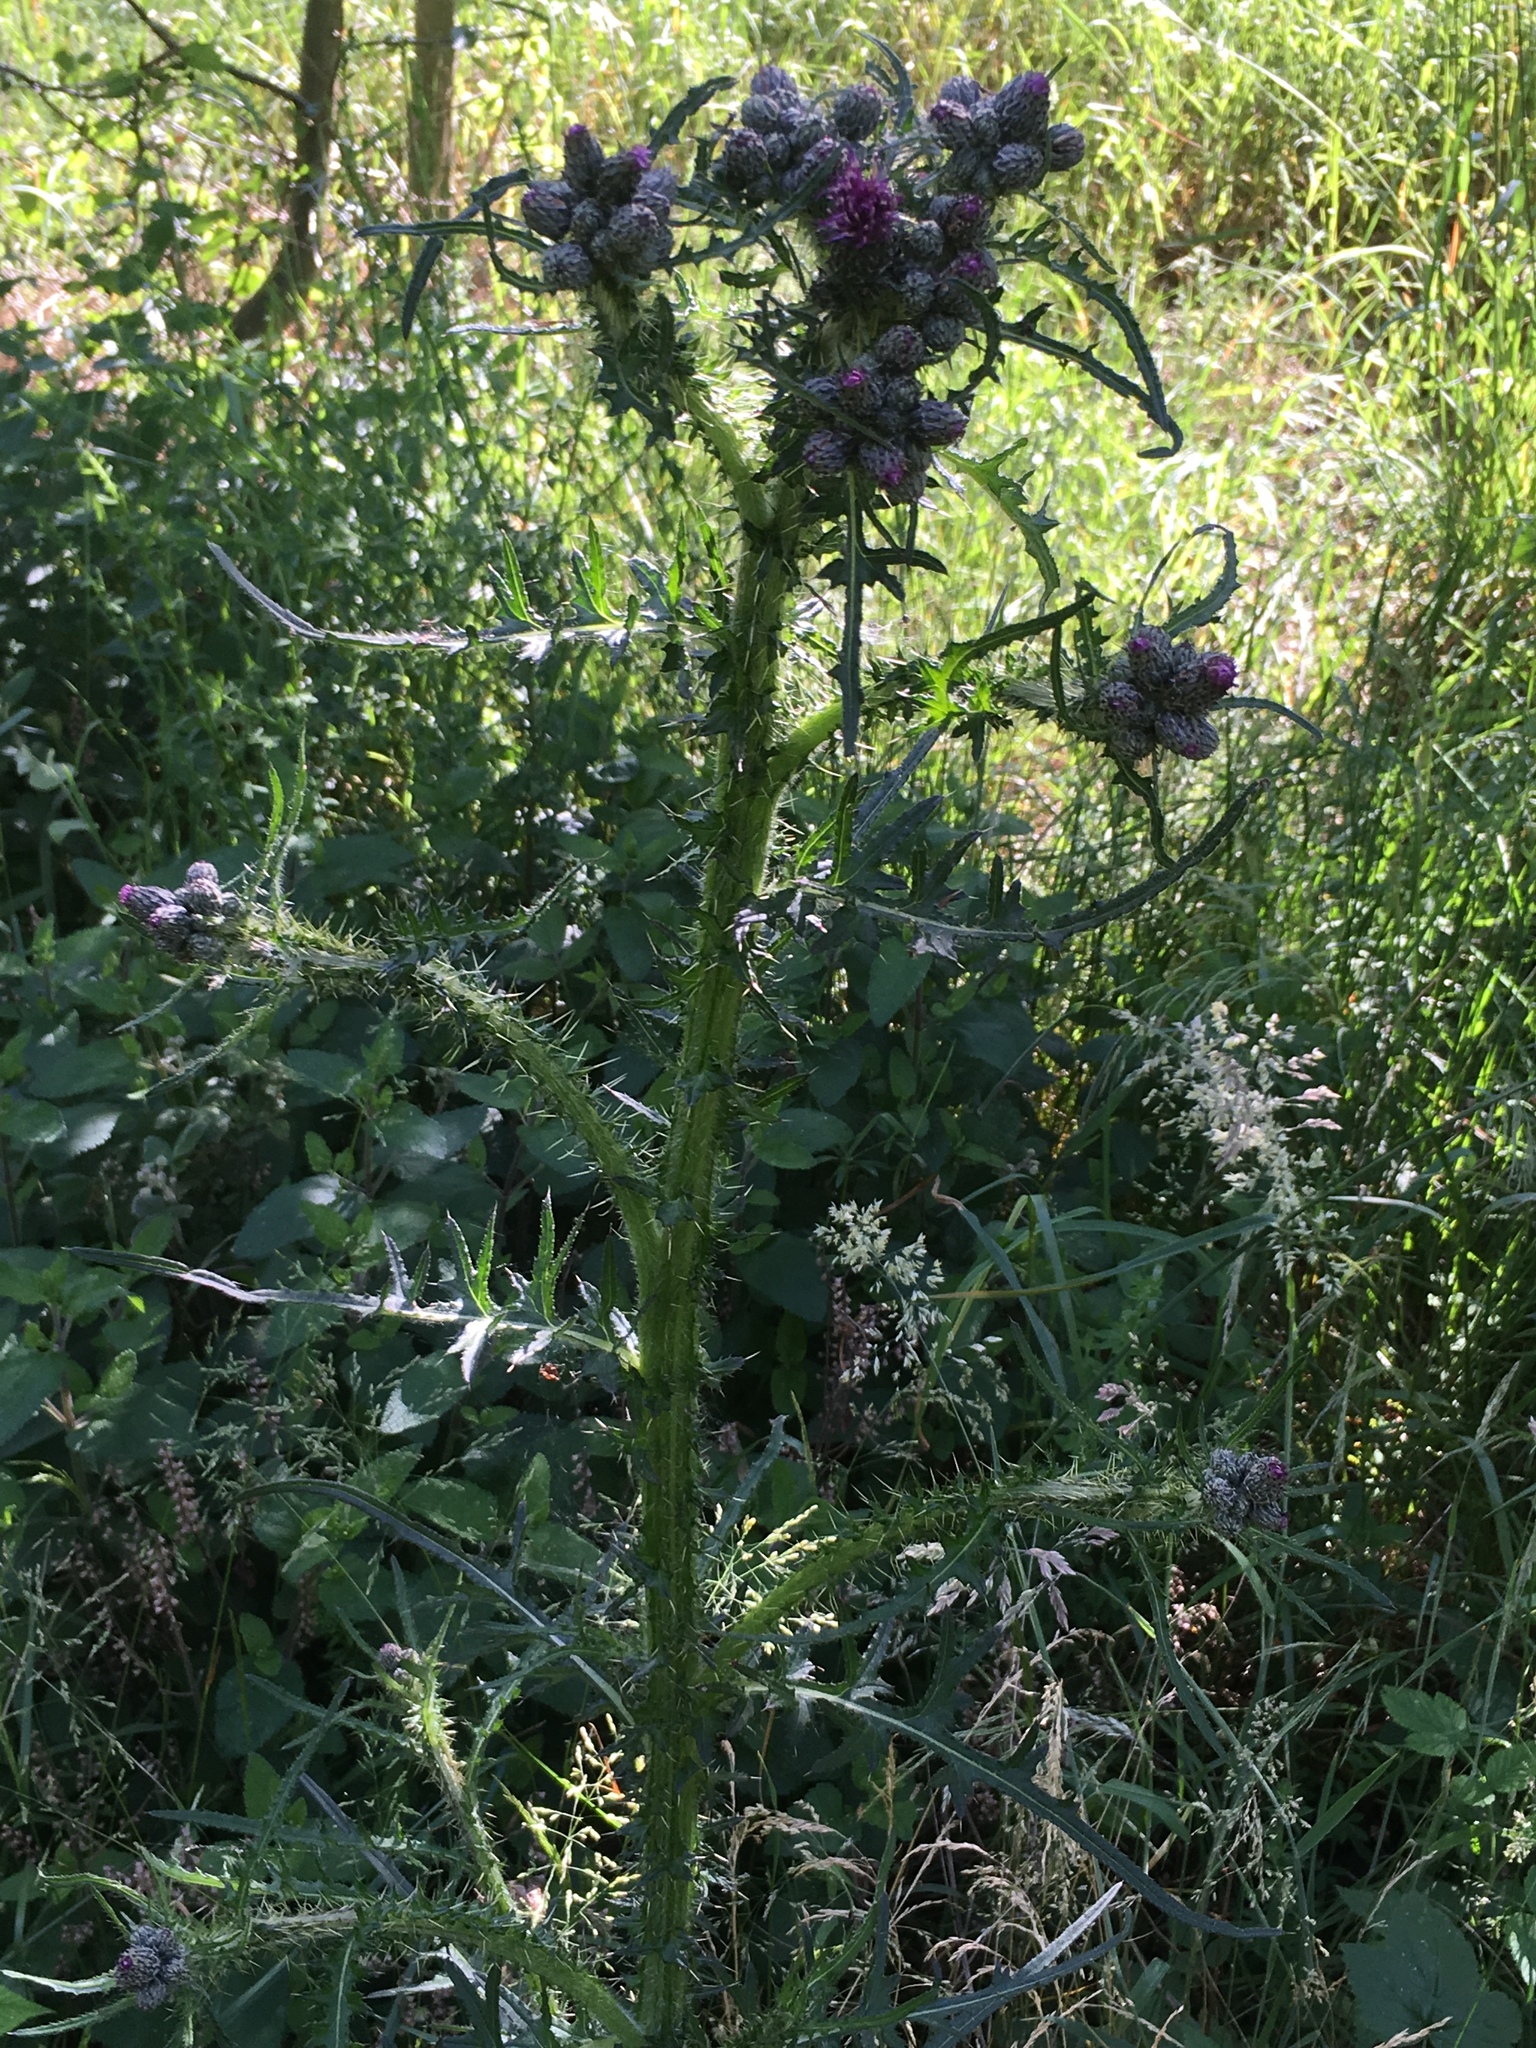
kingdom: Plantae
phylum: Tracheophyta
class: Magnoliopsida
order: Asterales
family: Asteraceae
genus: Cirsium
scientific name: Cirsium palustre
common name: Marsh thistle
